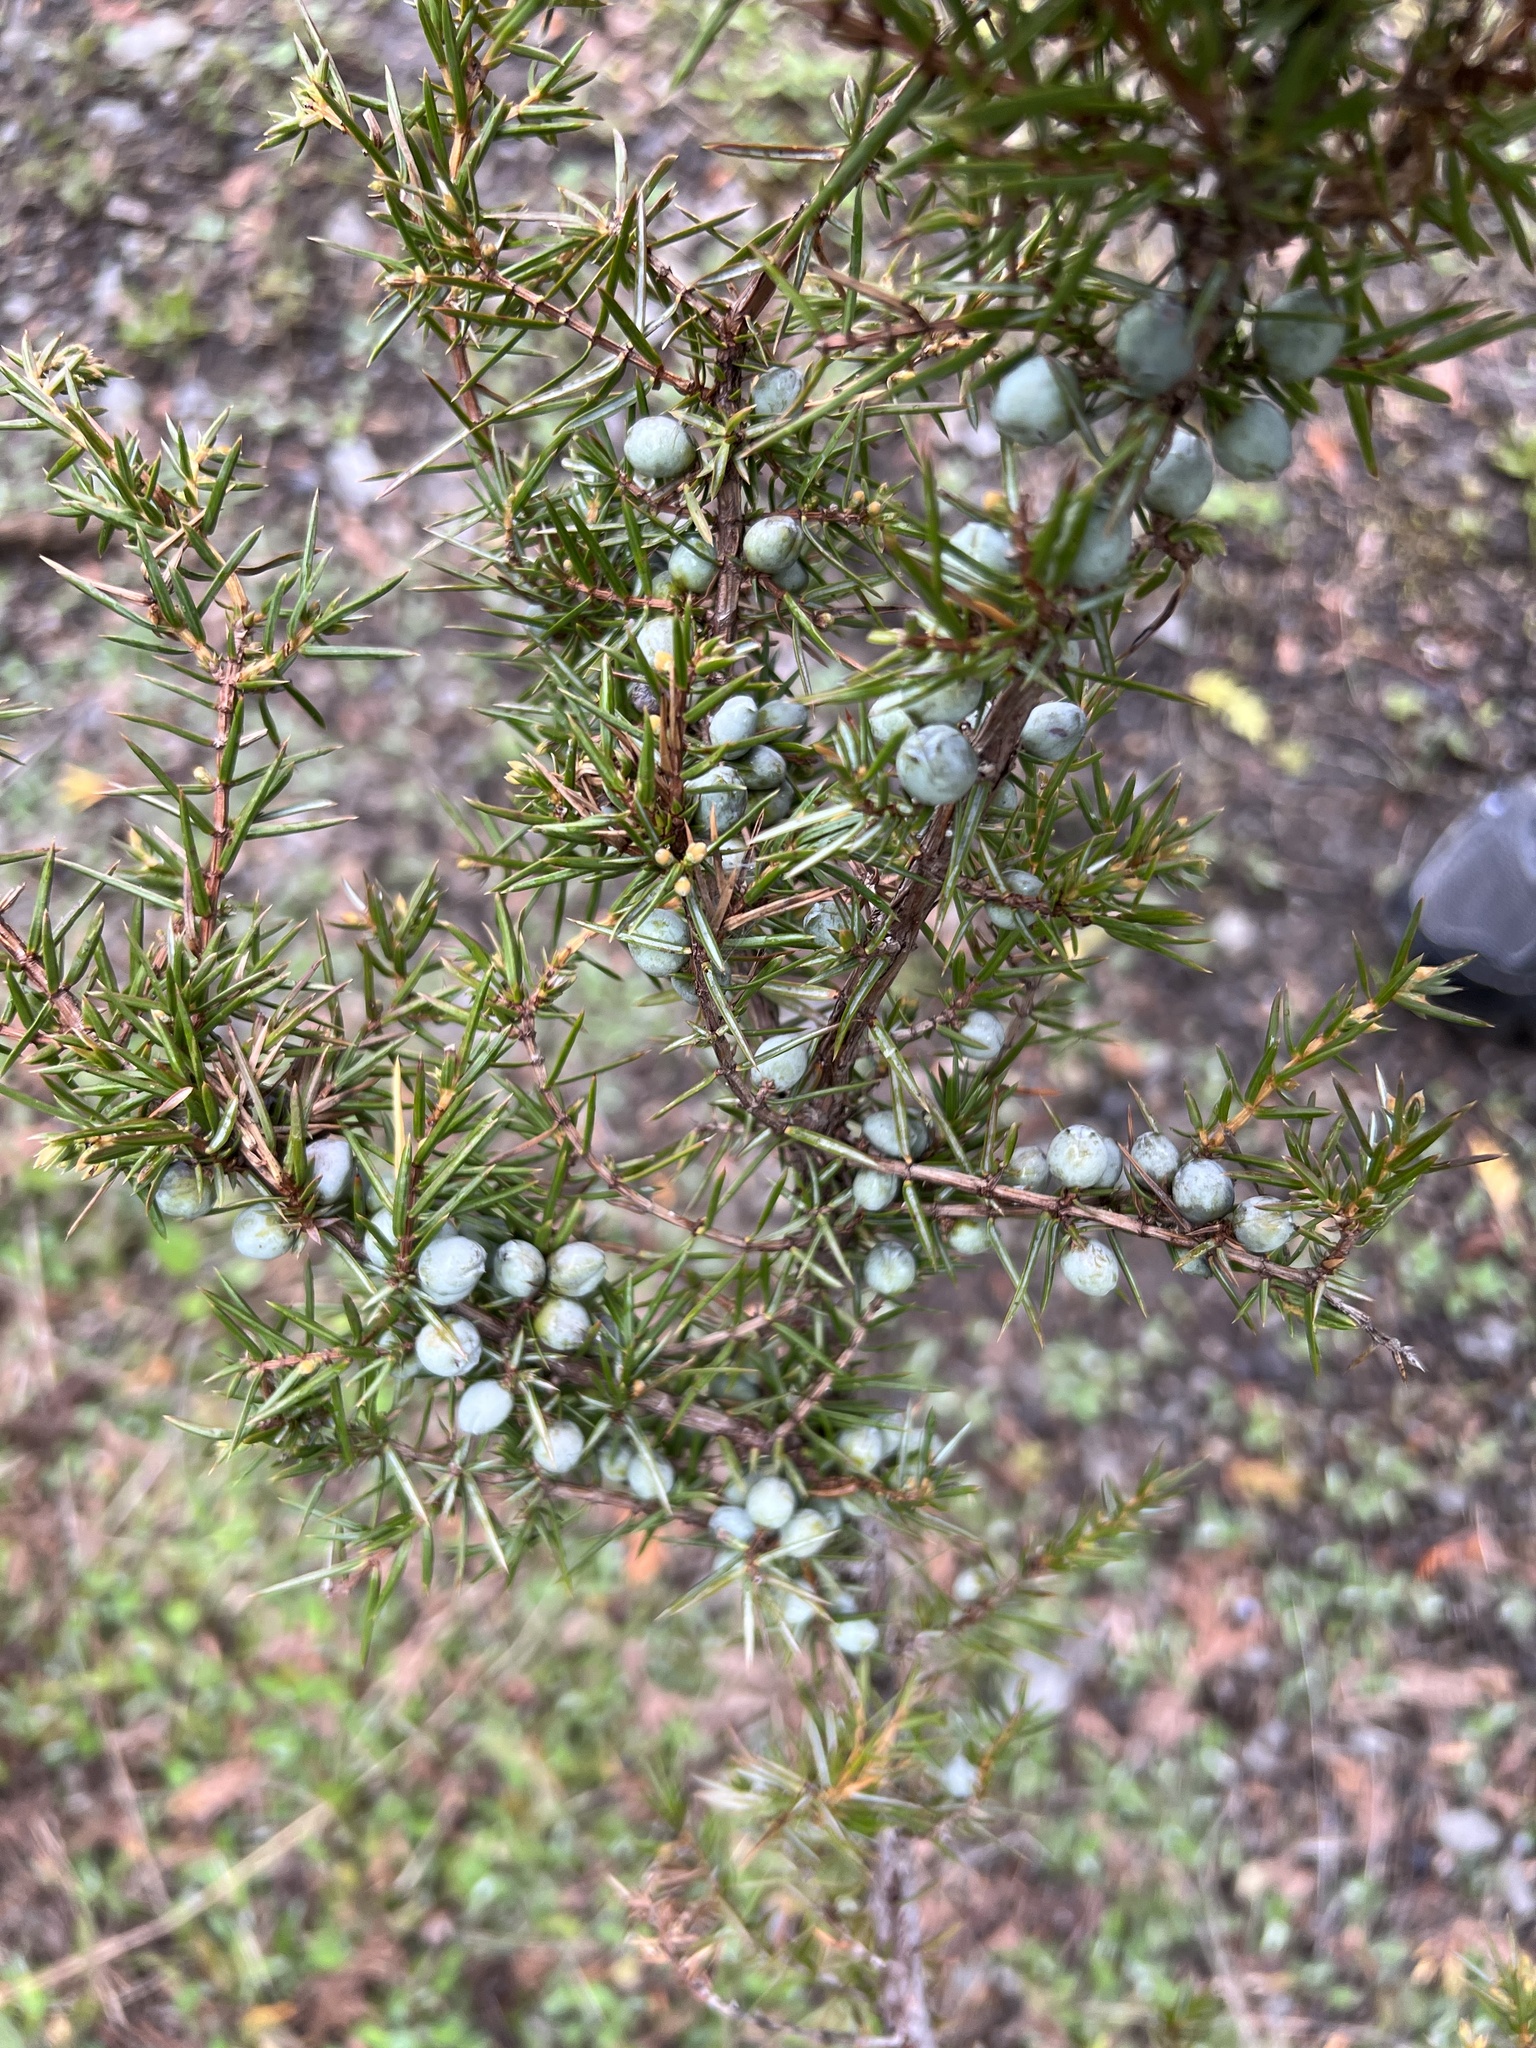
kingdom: Plantae
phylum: Tracheophyta
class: Pinopsida
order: Pinales
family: Cupressaceae
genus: Juniperus
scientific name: Juniperus communis
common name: Common juniper
